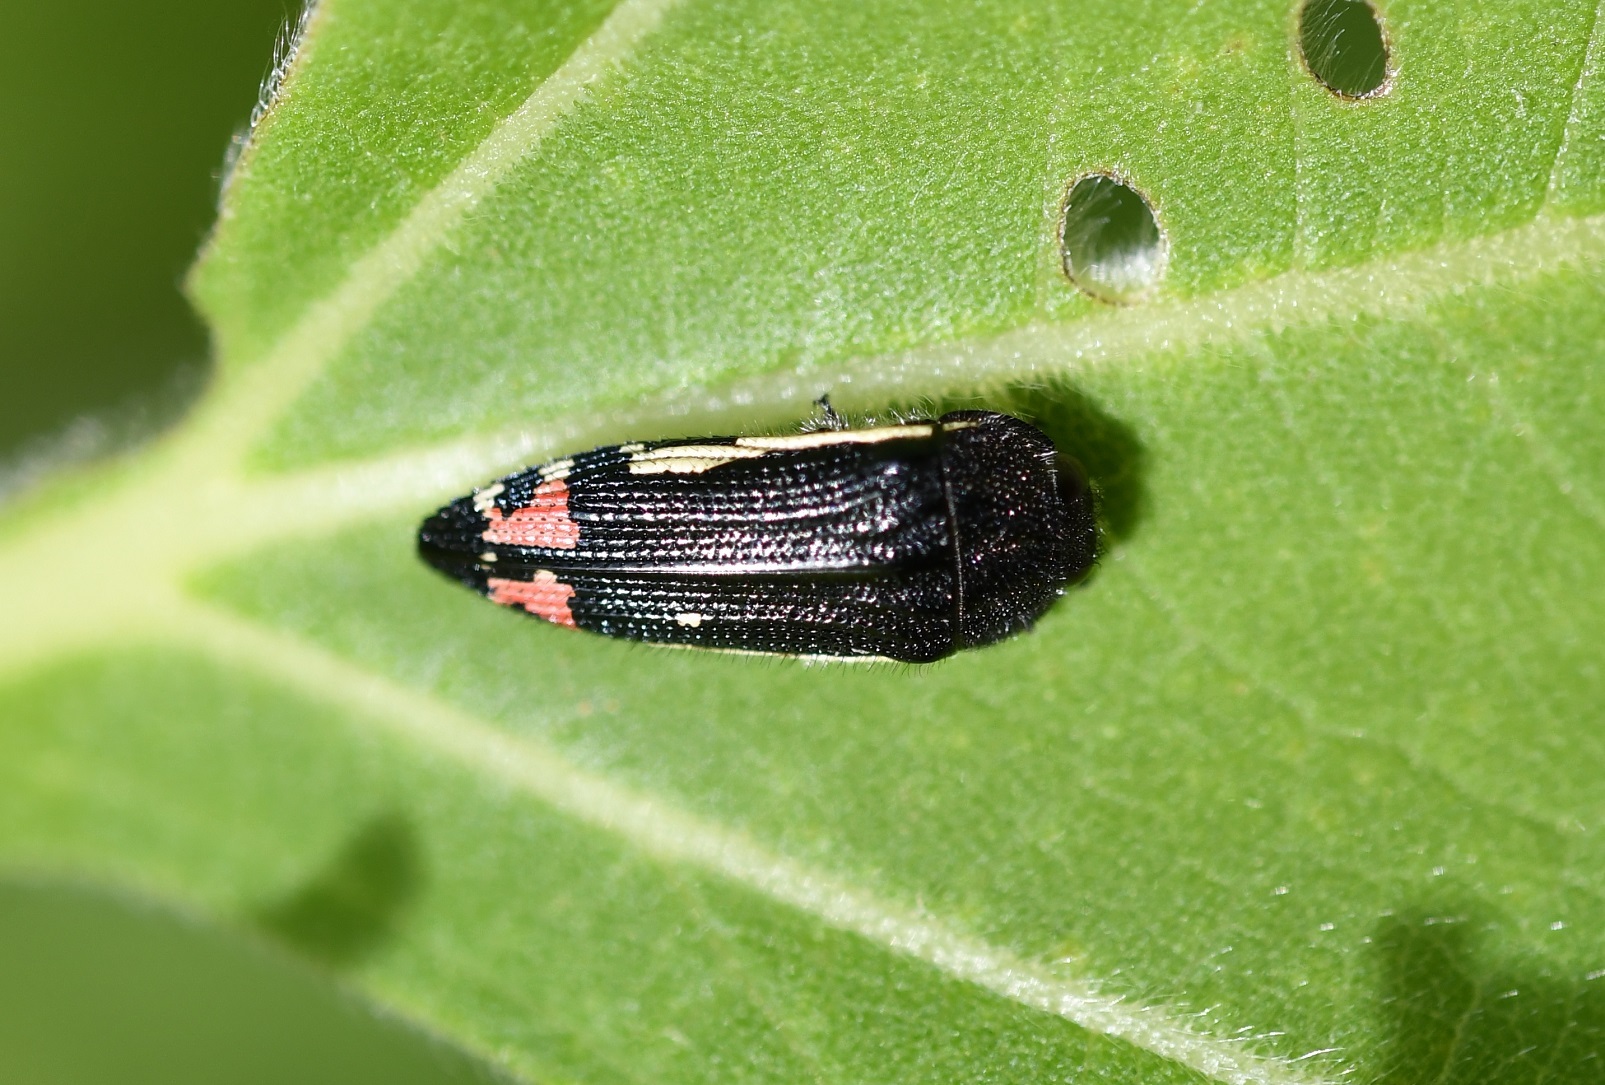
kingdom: Animalia
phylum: Arthropoda
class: Insecta
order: Coleoptera
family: Buprestidae
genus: Acmaeodera
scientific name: Acmaeodera flavomarginata
